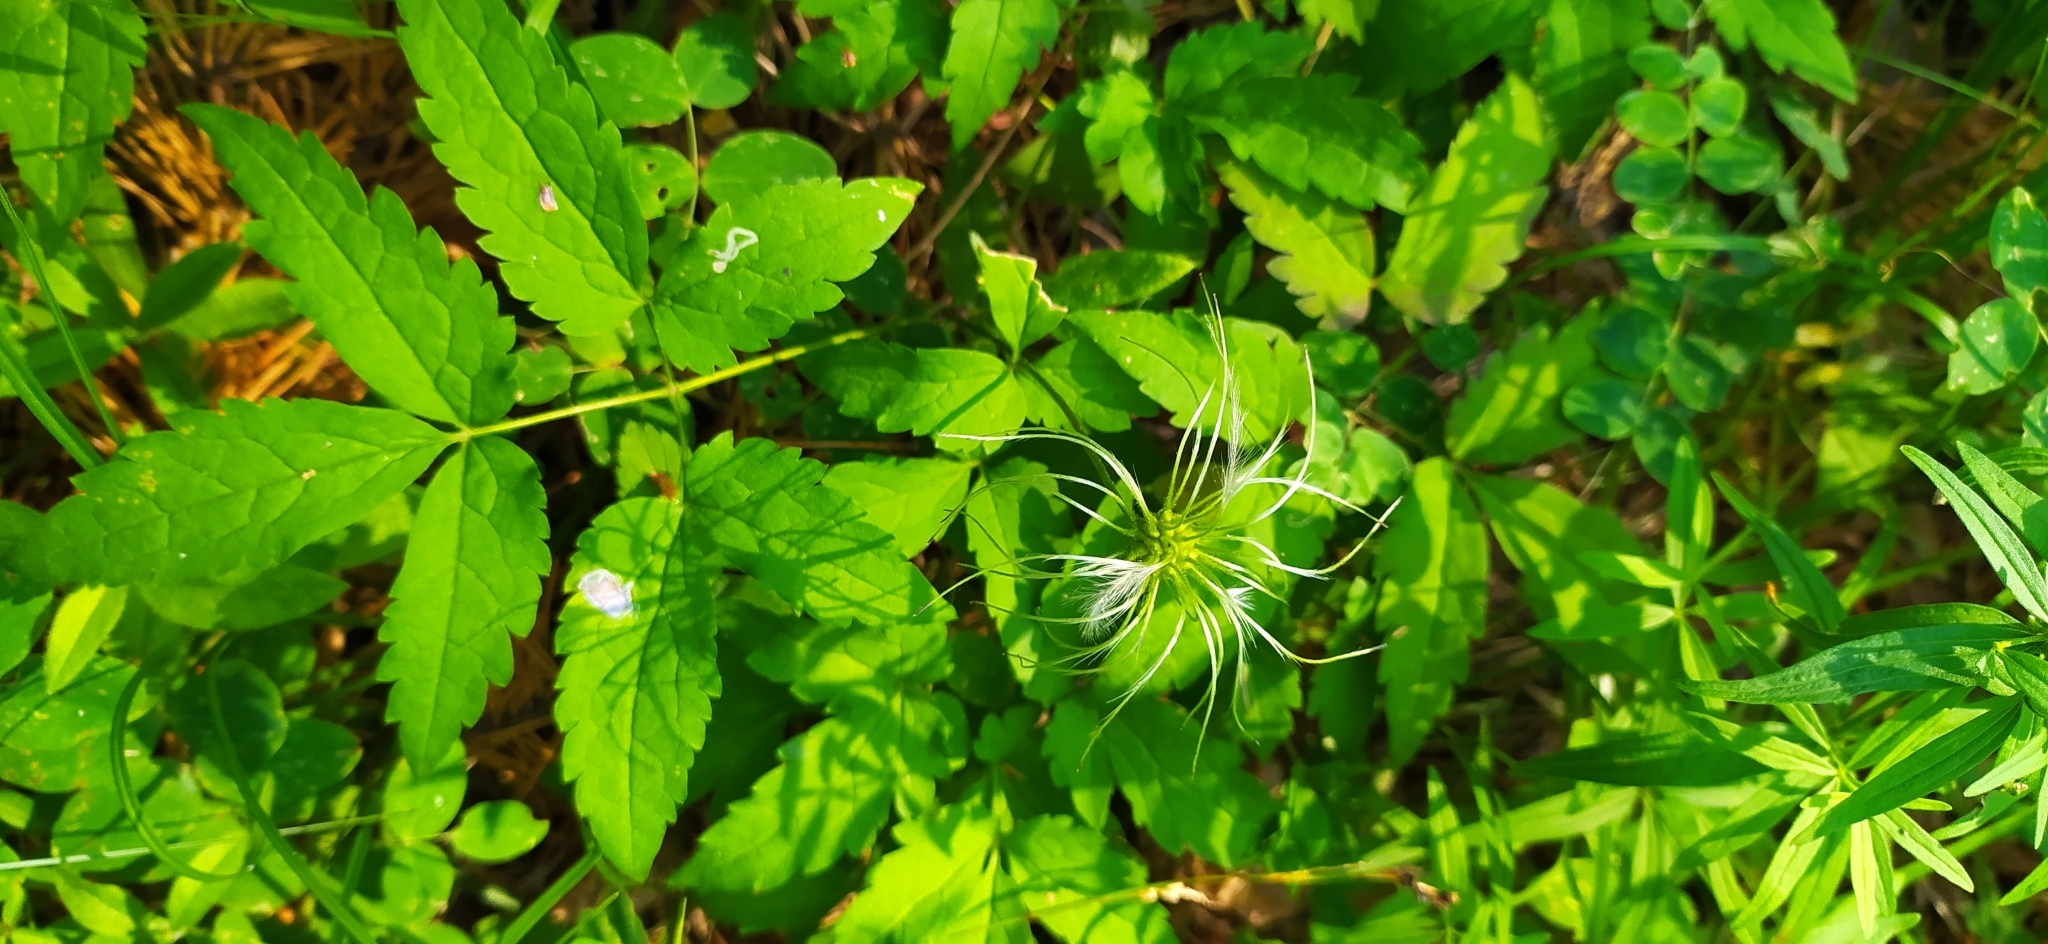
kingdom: Plantae
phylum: Tracheophyta
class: Magnoliopsida
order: Ranunculales
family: Ranunculaceae
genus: Clematis
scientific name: Clematis sibirica
